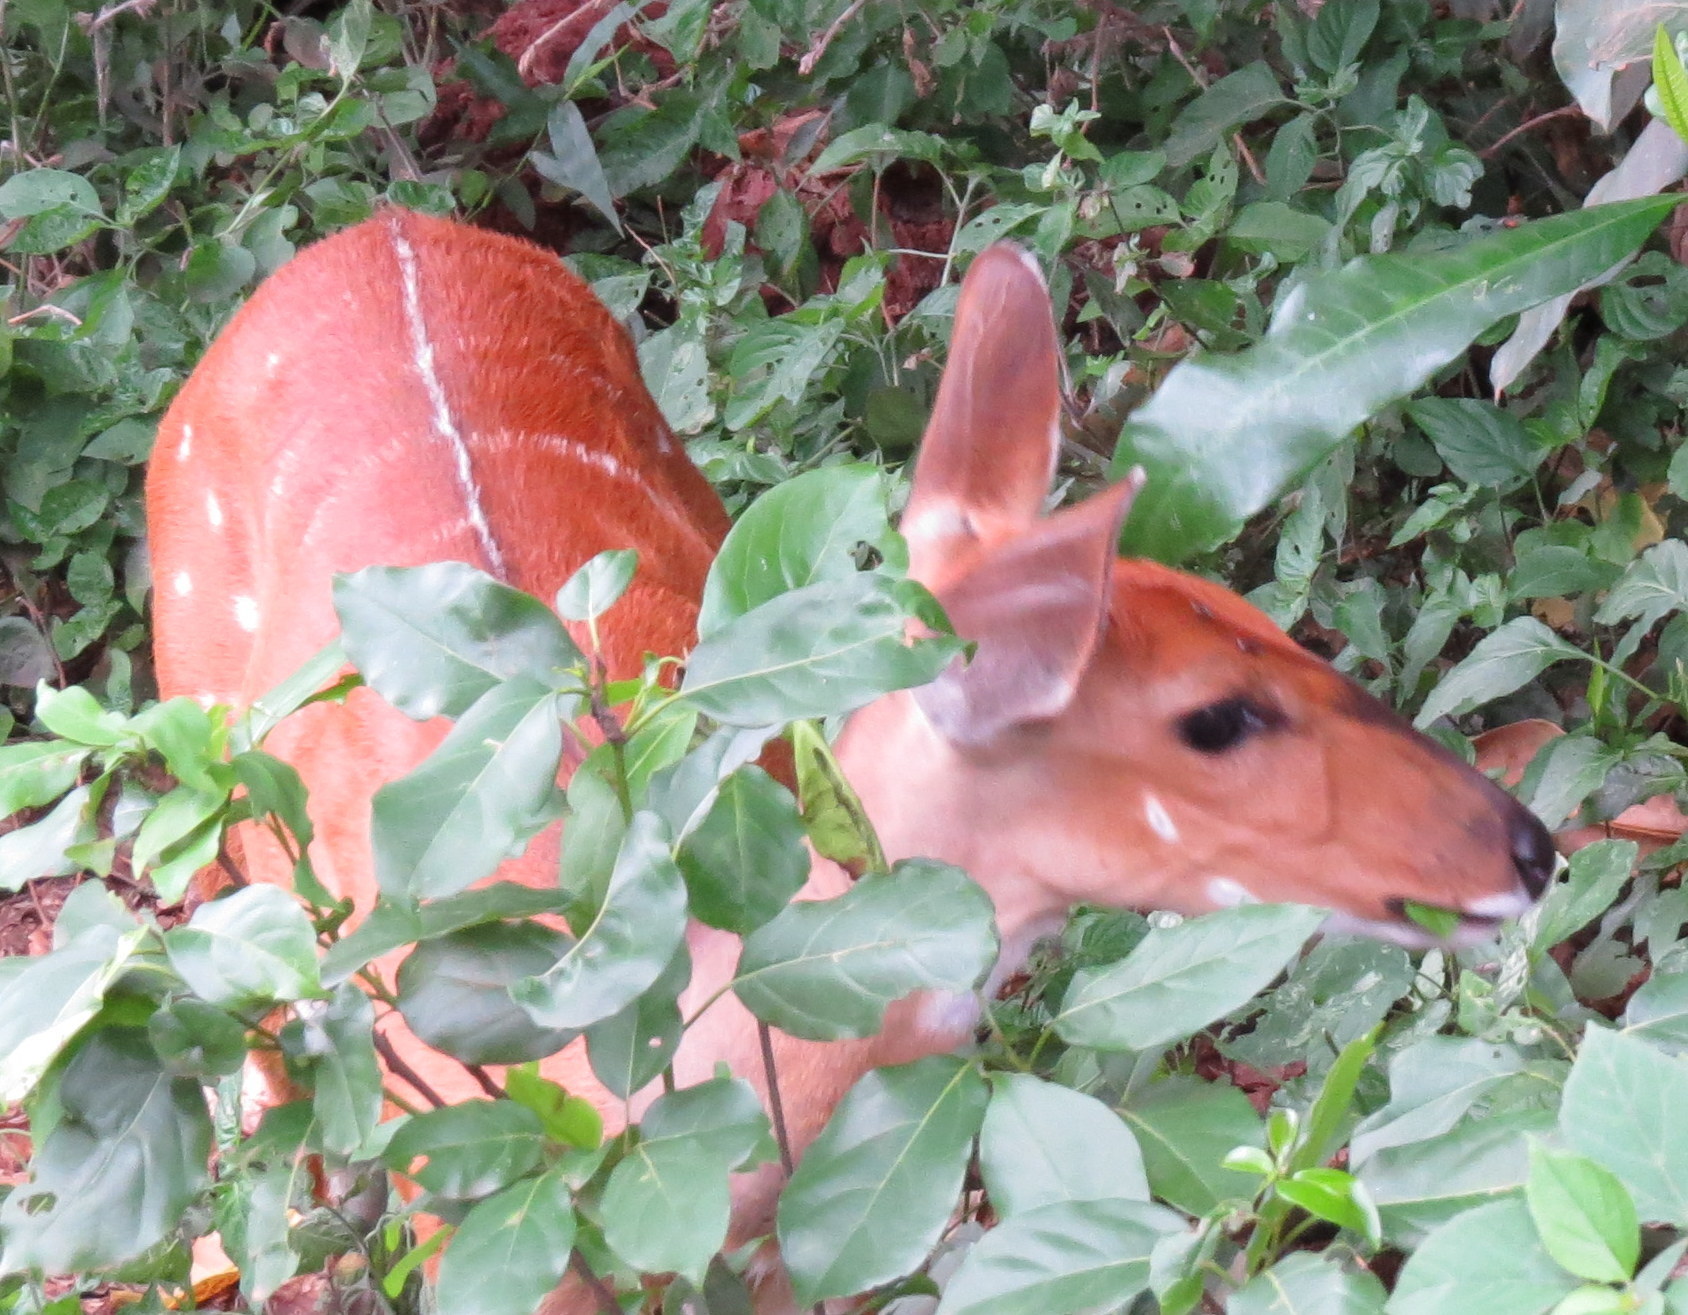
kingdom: Animalia
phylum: Chordata
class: Mammalia
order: Artiodactyla
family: Bovidae
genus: Tragelaphus
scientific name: Tragelaphus scriptus
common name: Bushbuck
